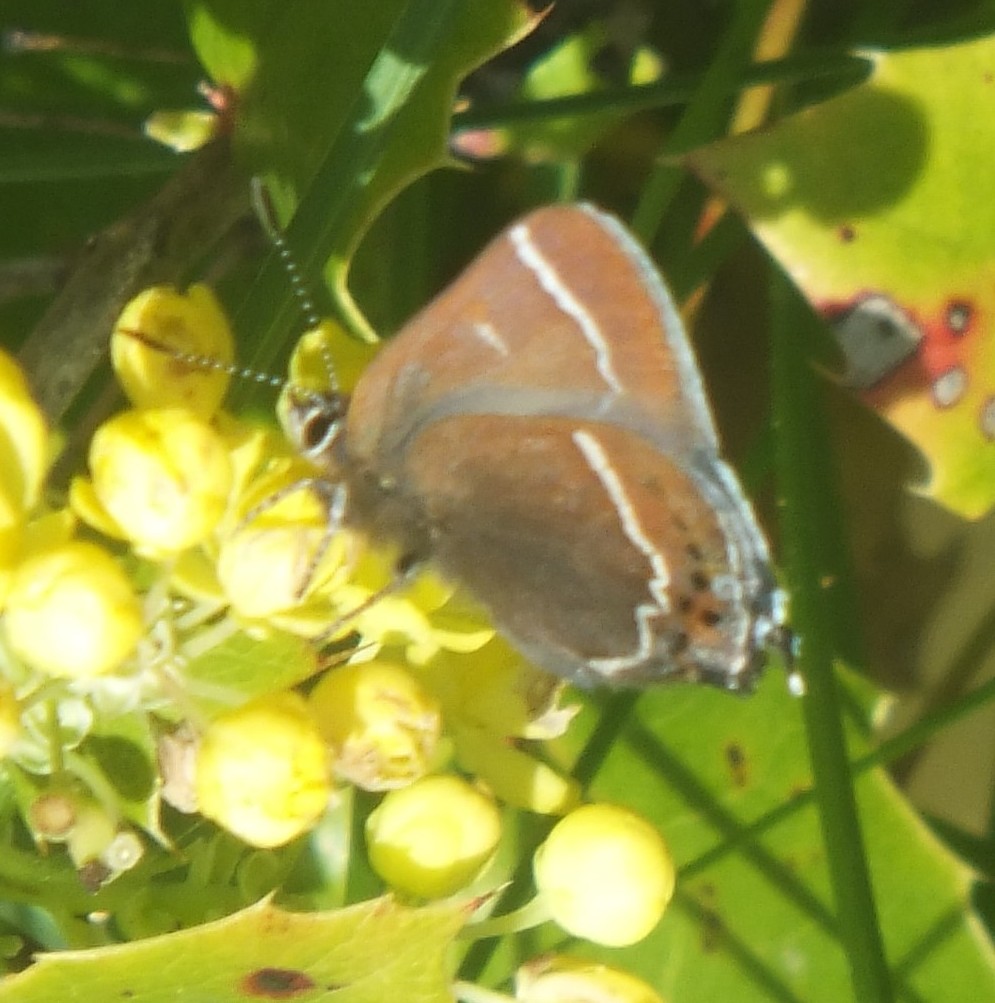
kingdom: Animalia
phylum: Arthropoda
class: Insecta
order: Lepidoptera
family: Lycaenidae
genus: Mitoura
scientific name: Mitoura spinetorum
